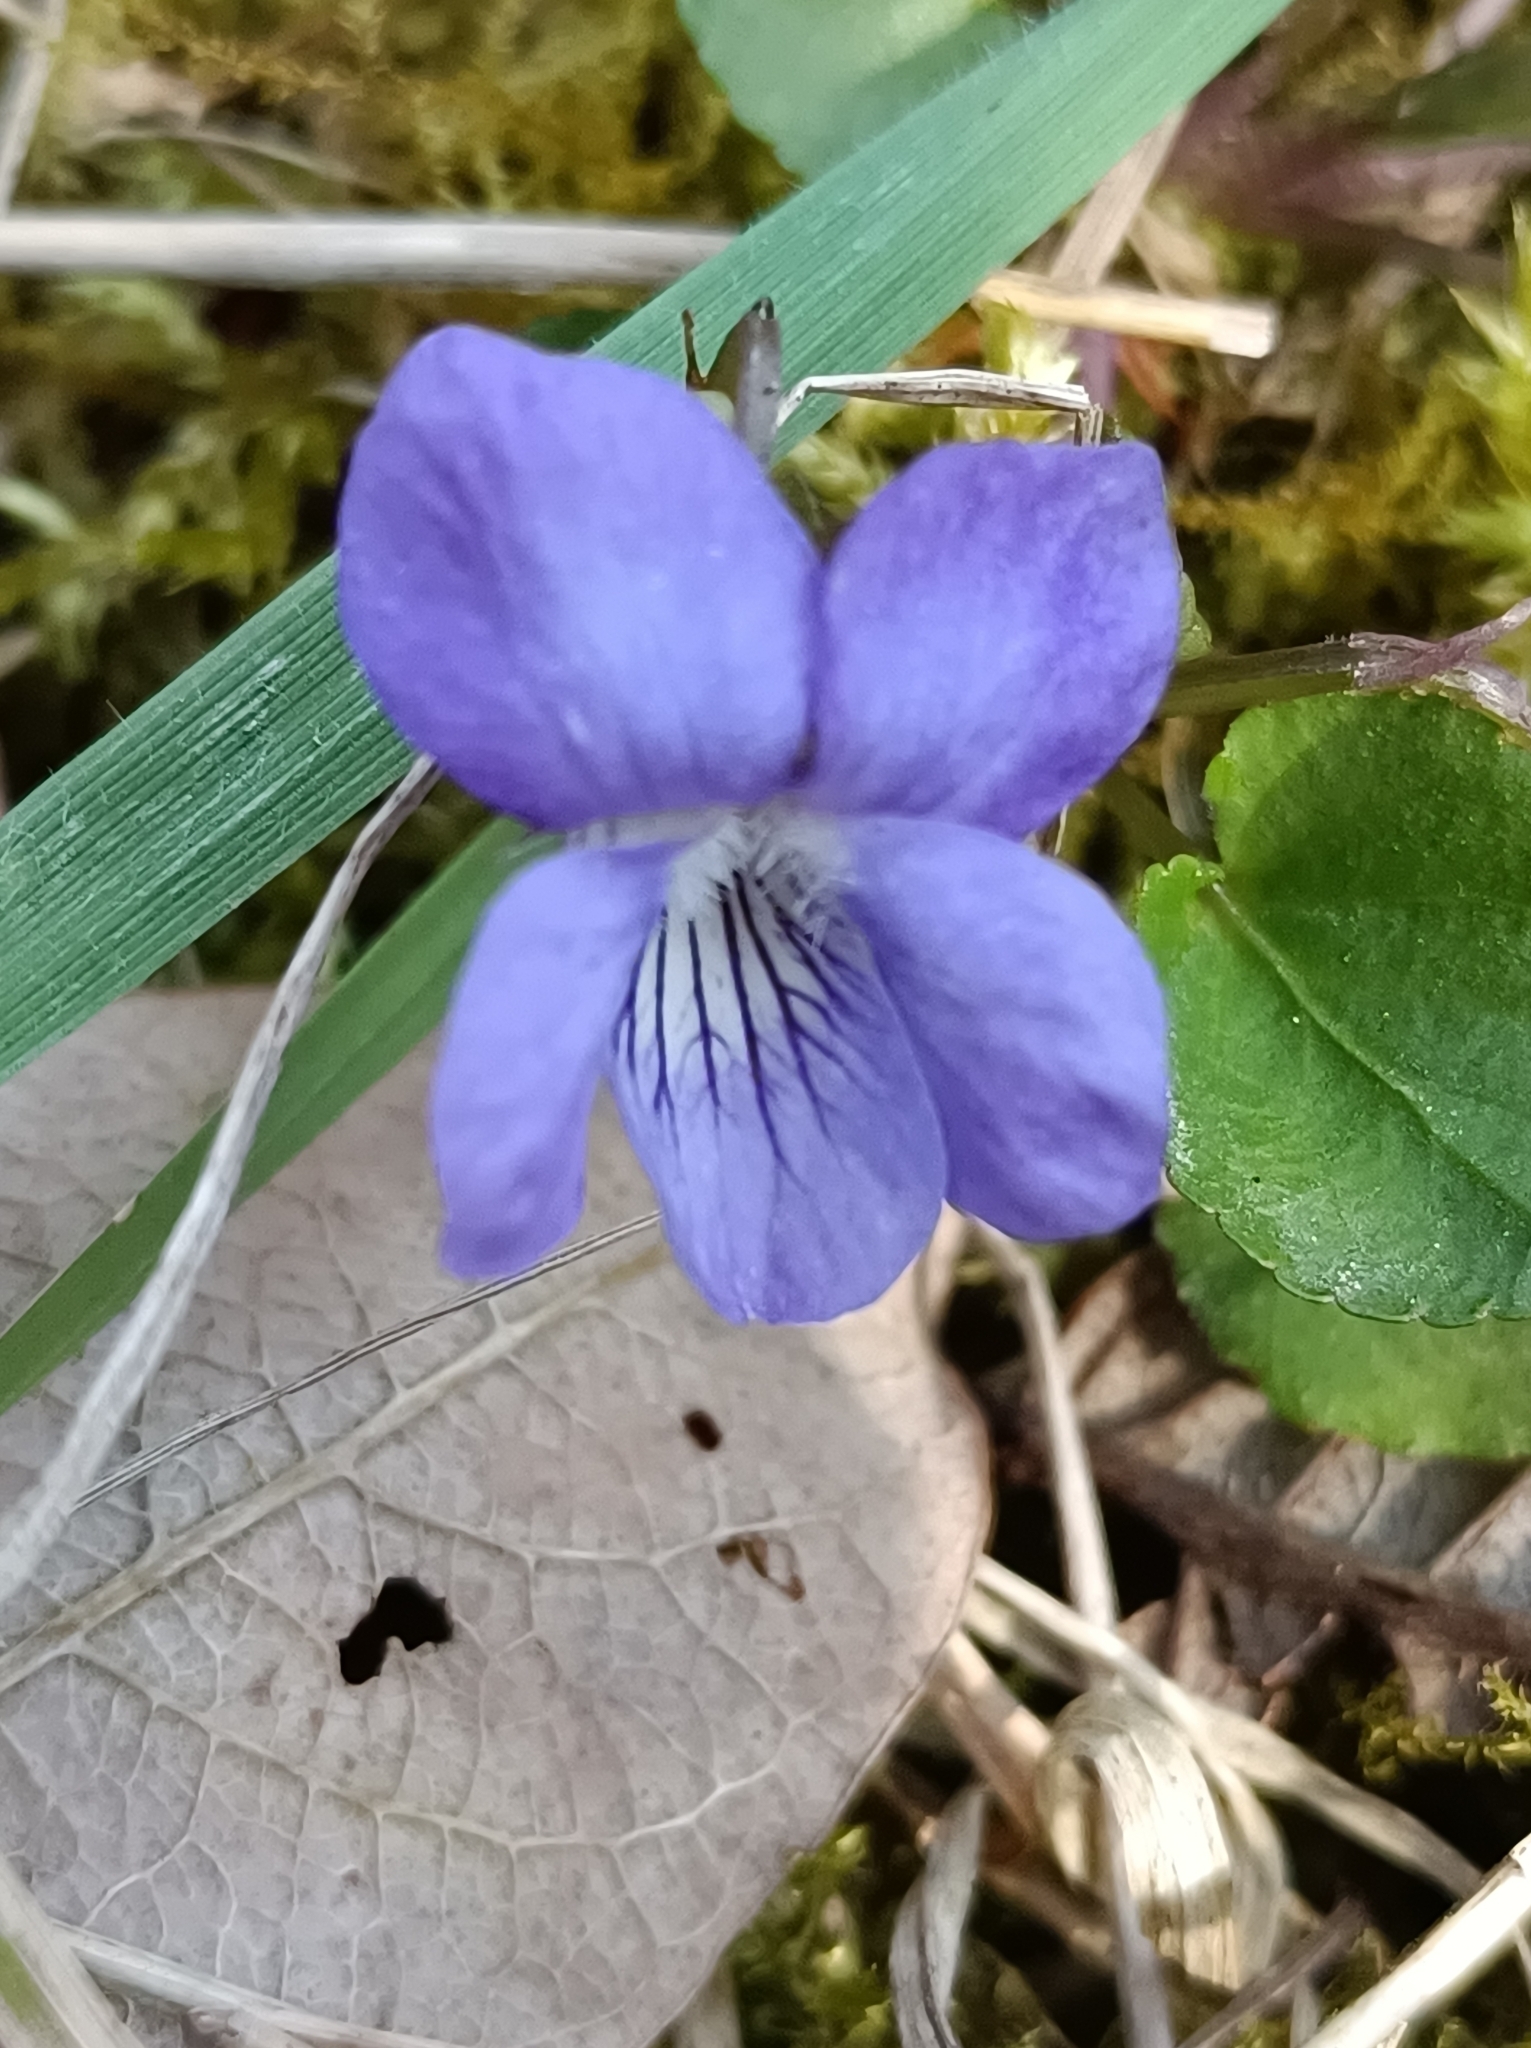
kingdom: Plantae
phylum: Tracheophyta
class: Magnoliopsida
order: Malpighiales
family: Violaceae
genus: Viola
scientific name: Viola riviniana
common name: Common dog-violet
